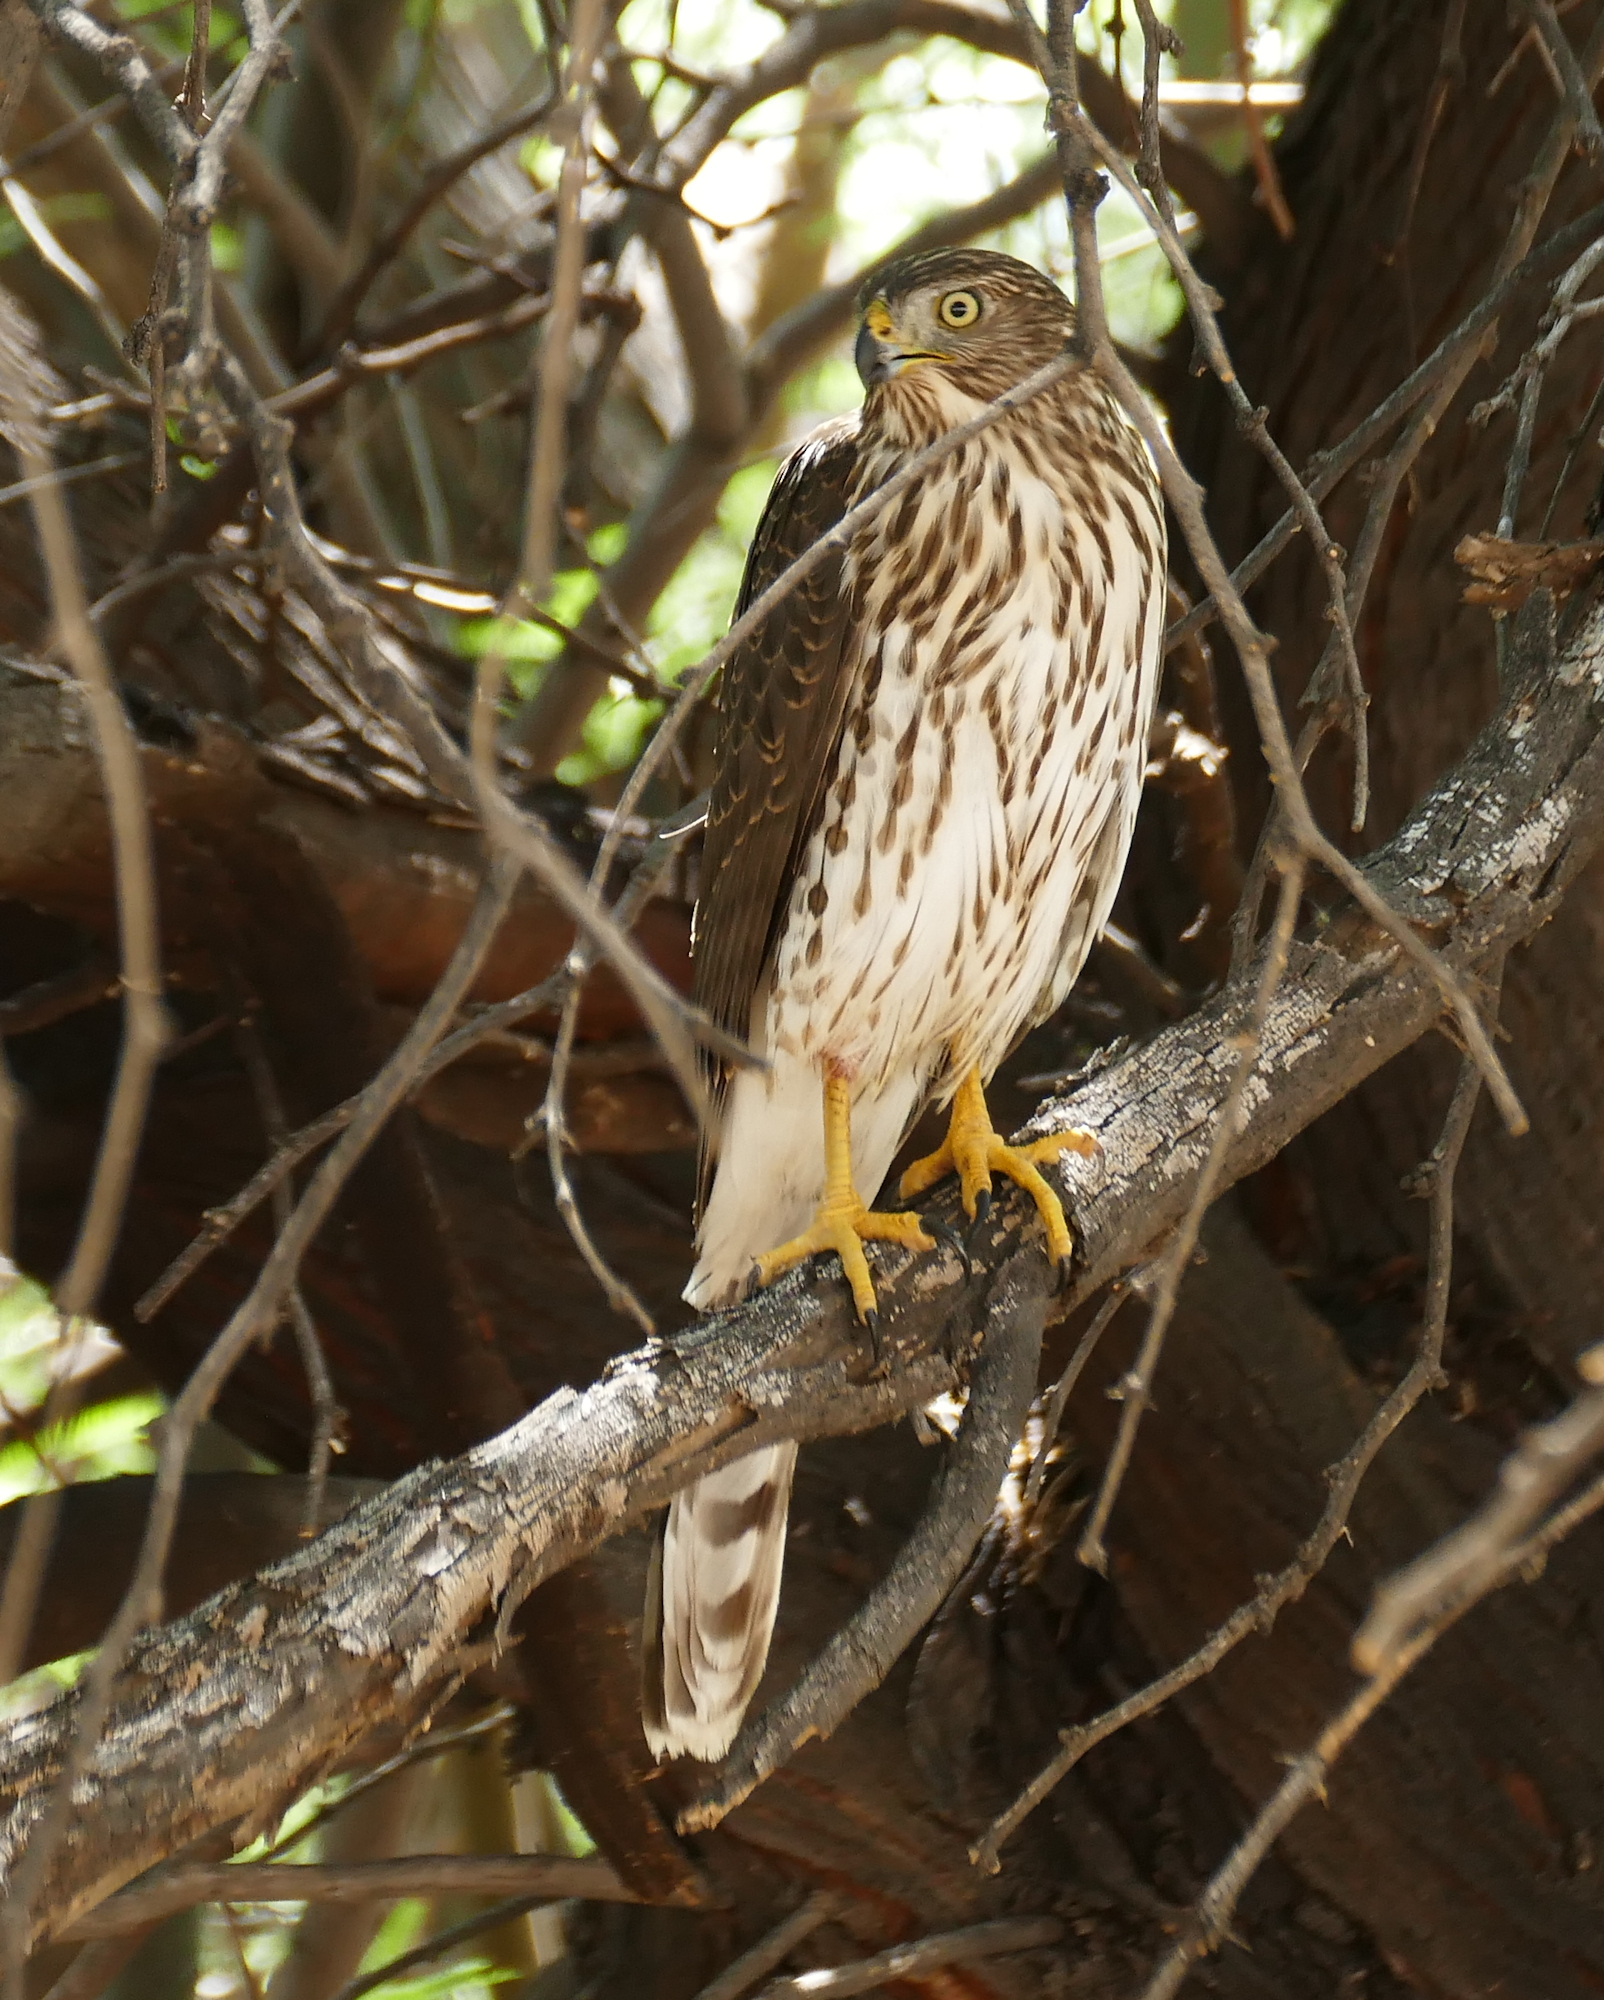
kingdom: Animalia
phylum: Chordata
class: Aves
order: Accipitriformes
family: Accipitridae
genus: Accipiter
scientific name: Accipiter cooperii
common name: Cooper's hawk
